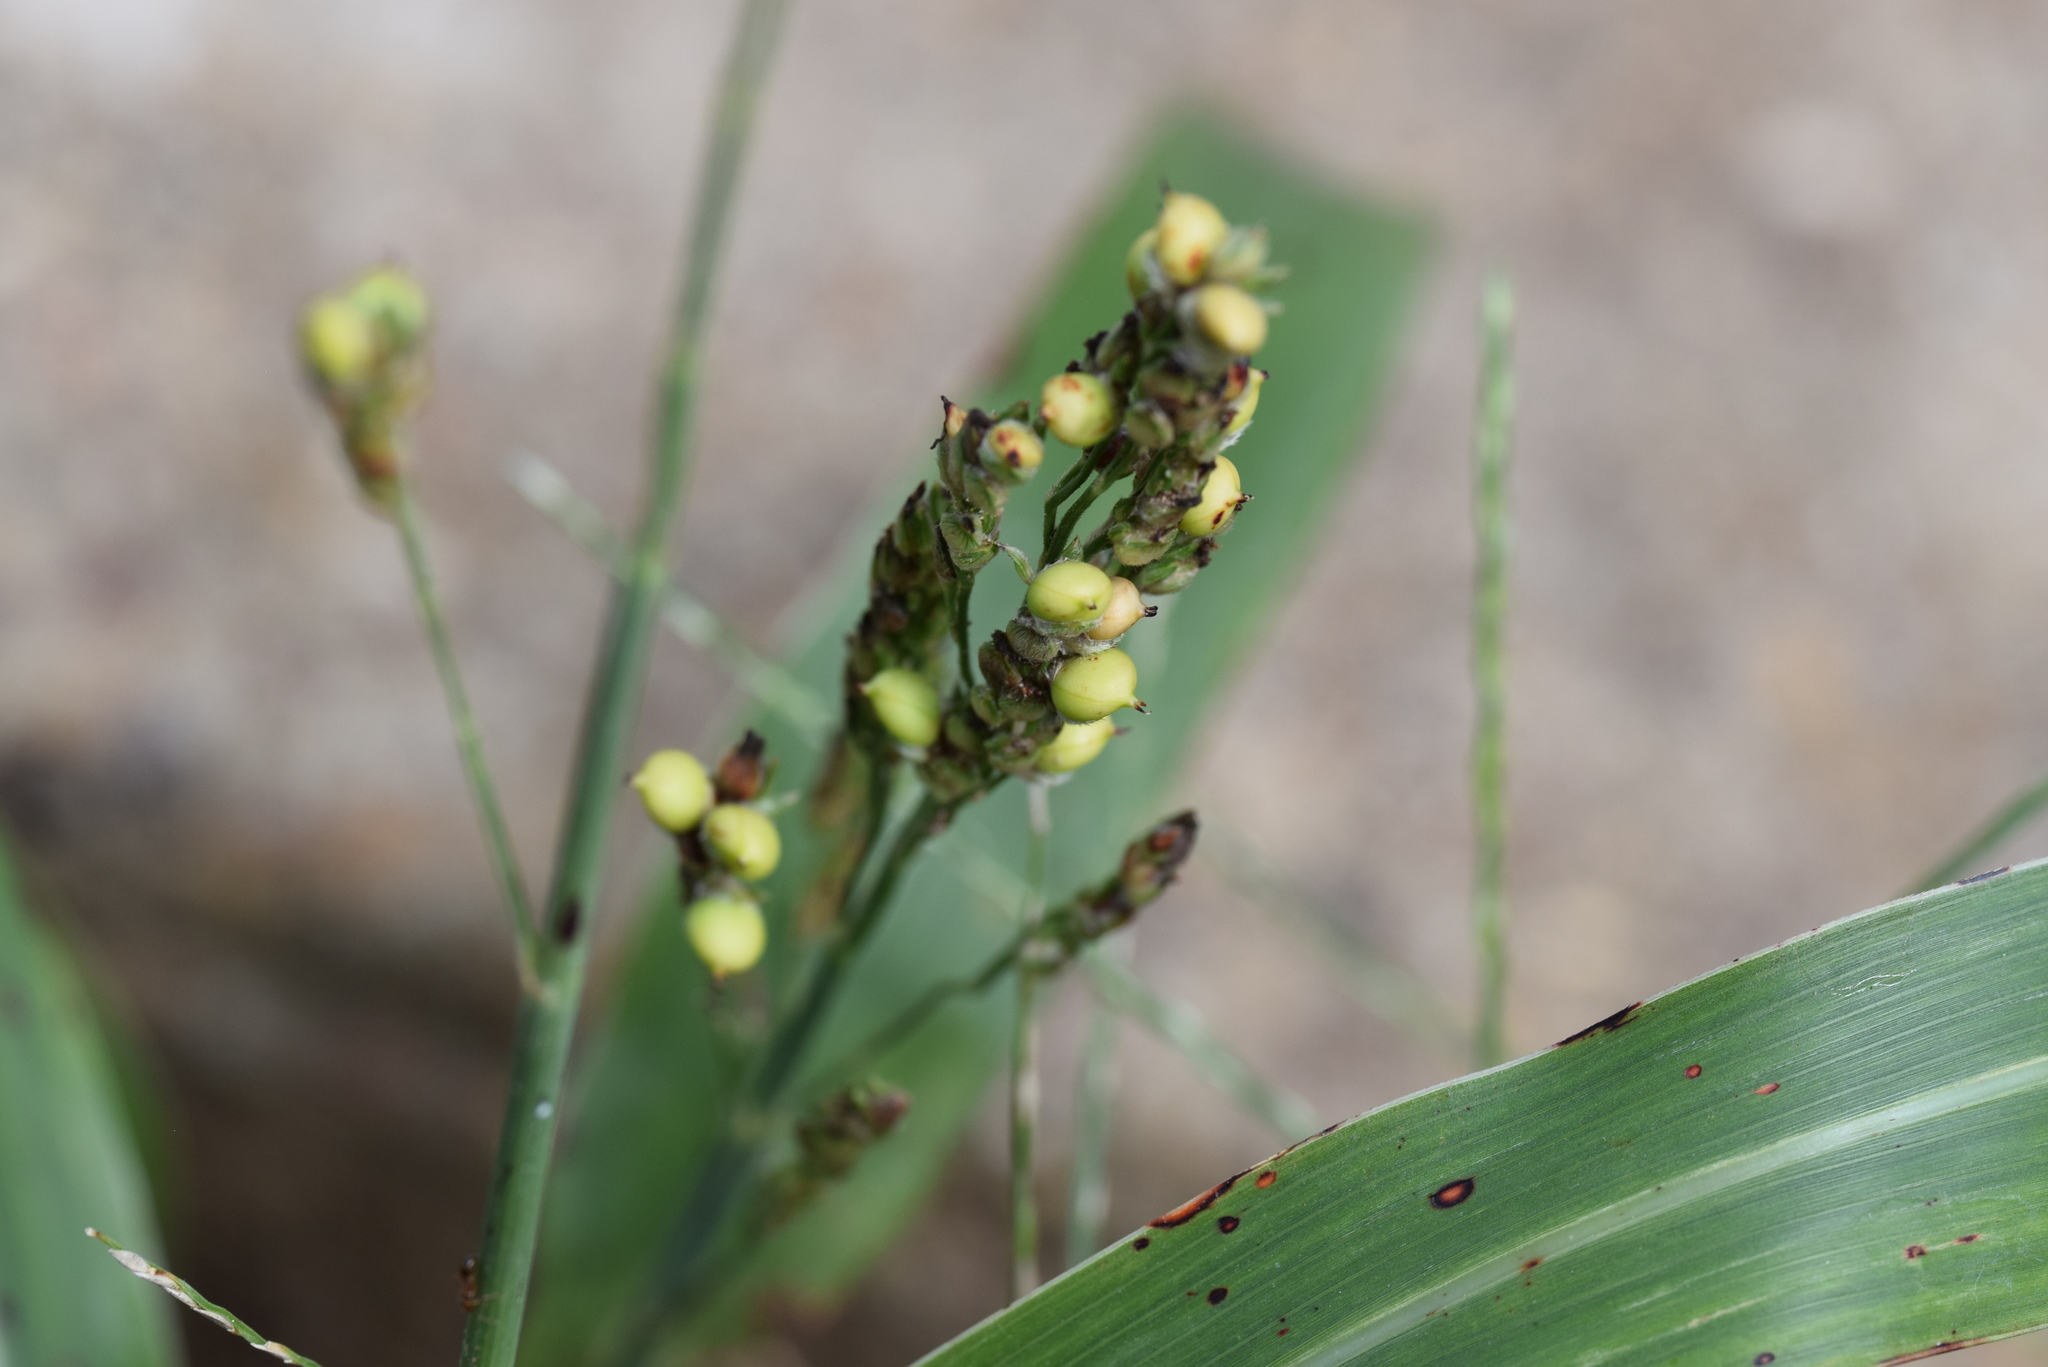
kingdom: Plantae
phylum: Tracheophyta
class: Liliopsida
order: Poales
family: Poaceae
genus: Sorghum
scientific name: Sorghum bicolor
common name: Sorghum
